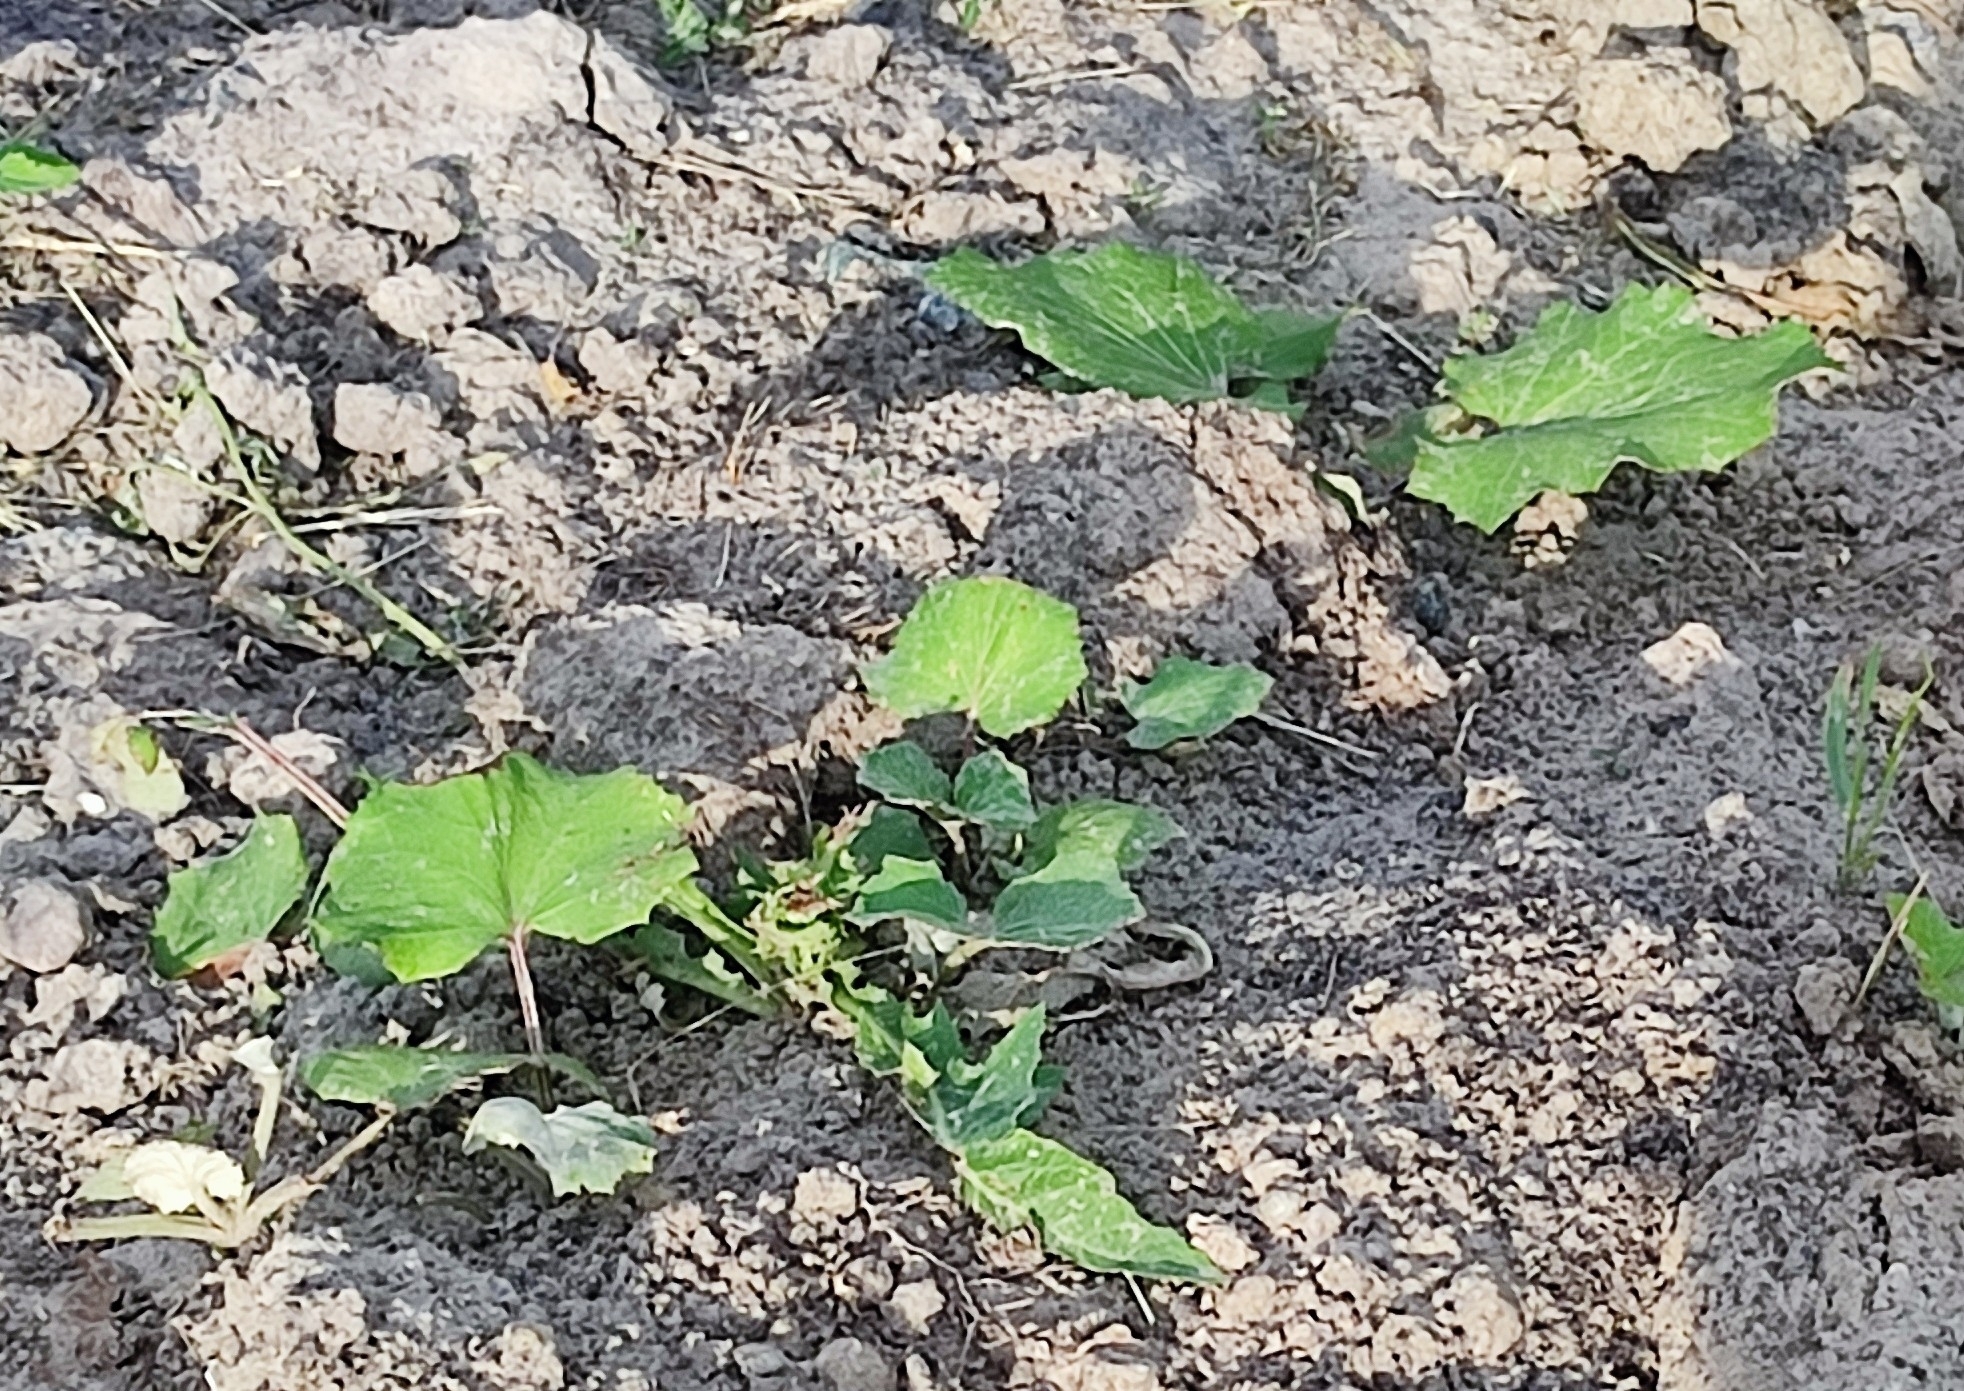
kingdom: Plantae
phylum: Tracheophyta
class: Magnoliopsida
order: Asterales
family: Asteraceae
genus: Tussilago
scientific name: Tussilago farfara
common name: Coltsfoot
